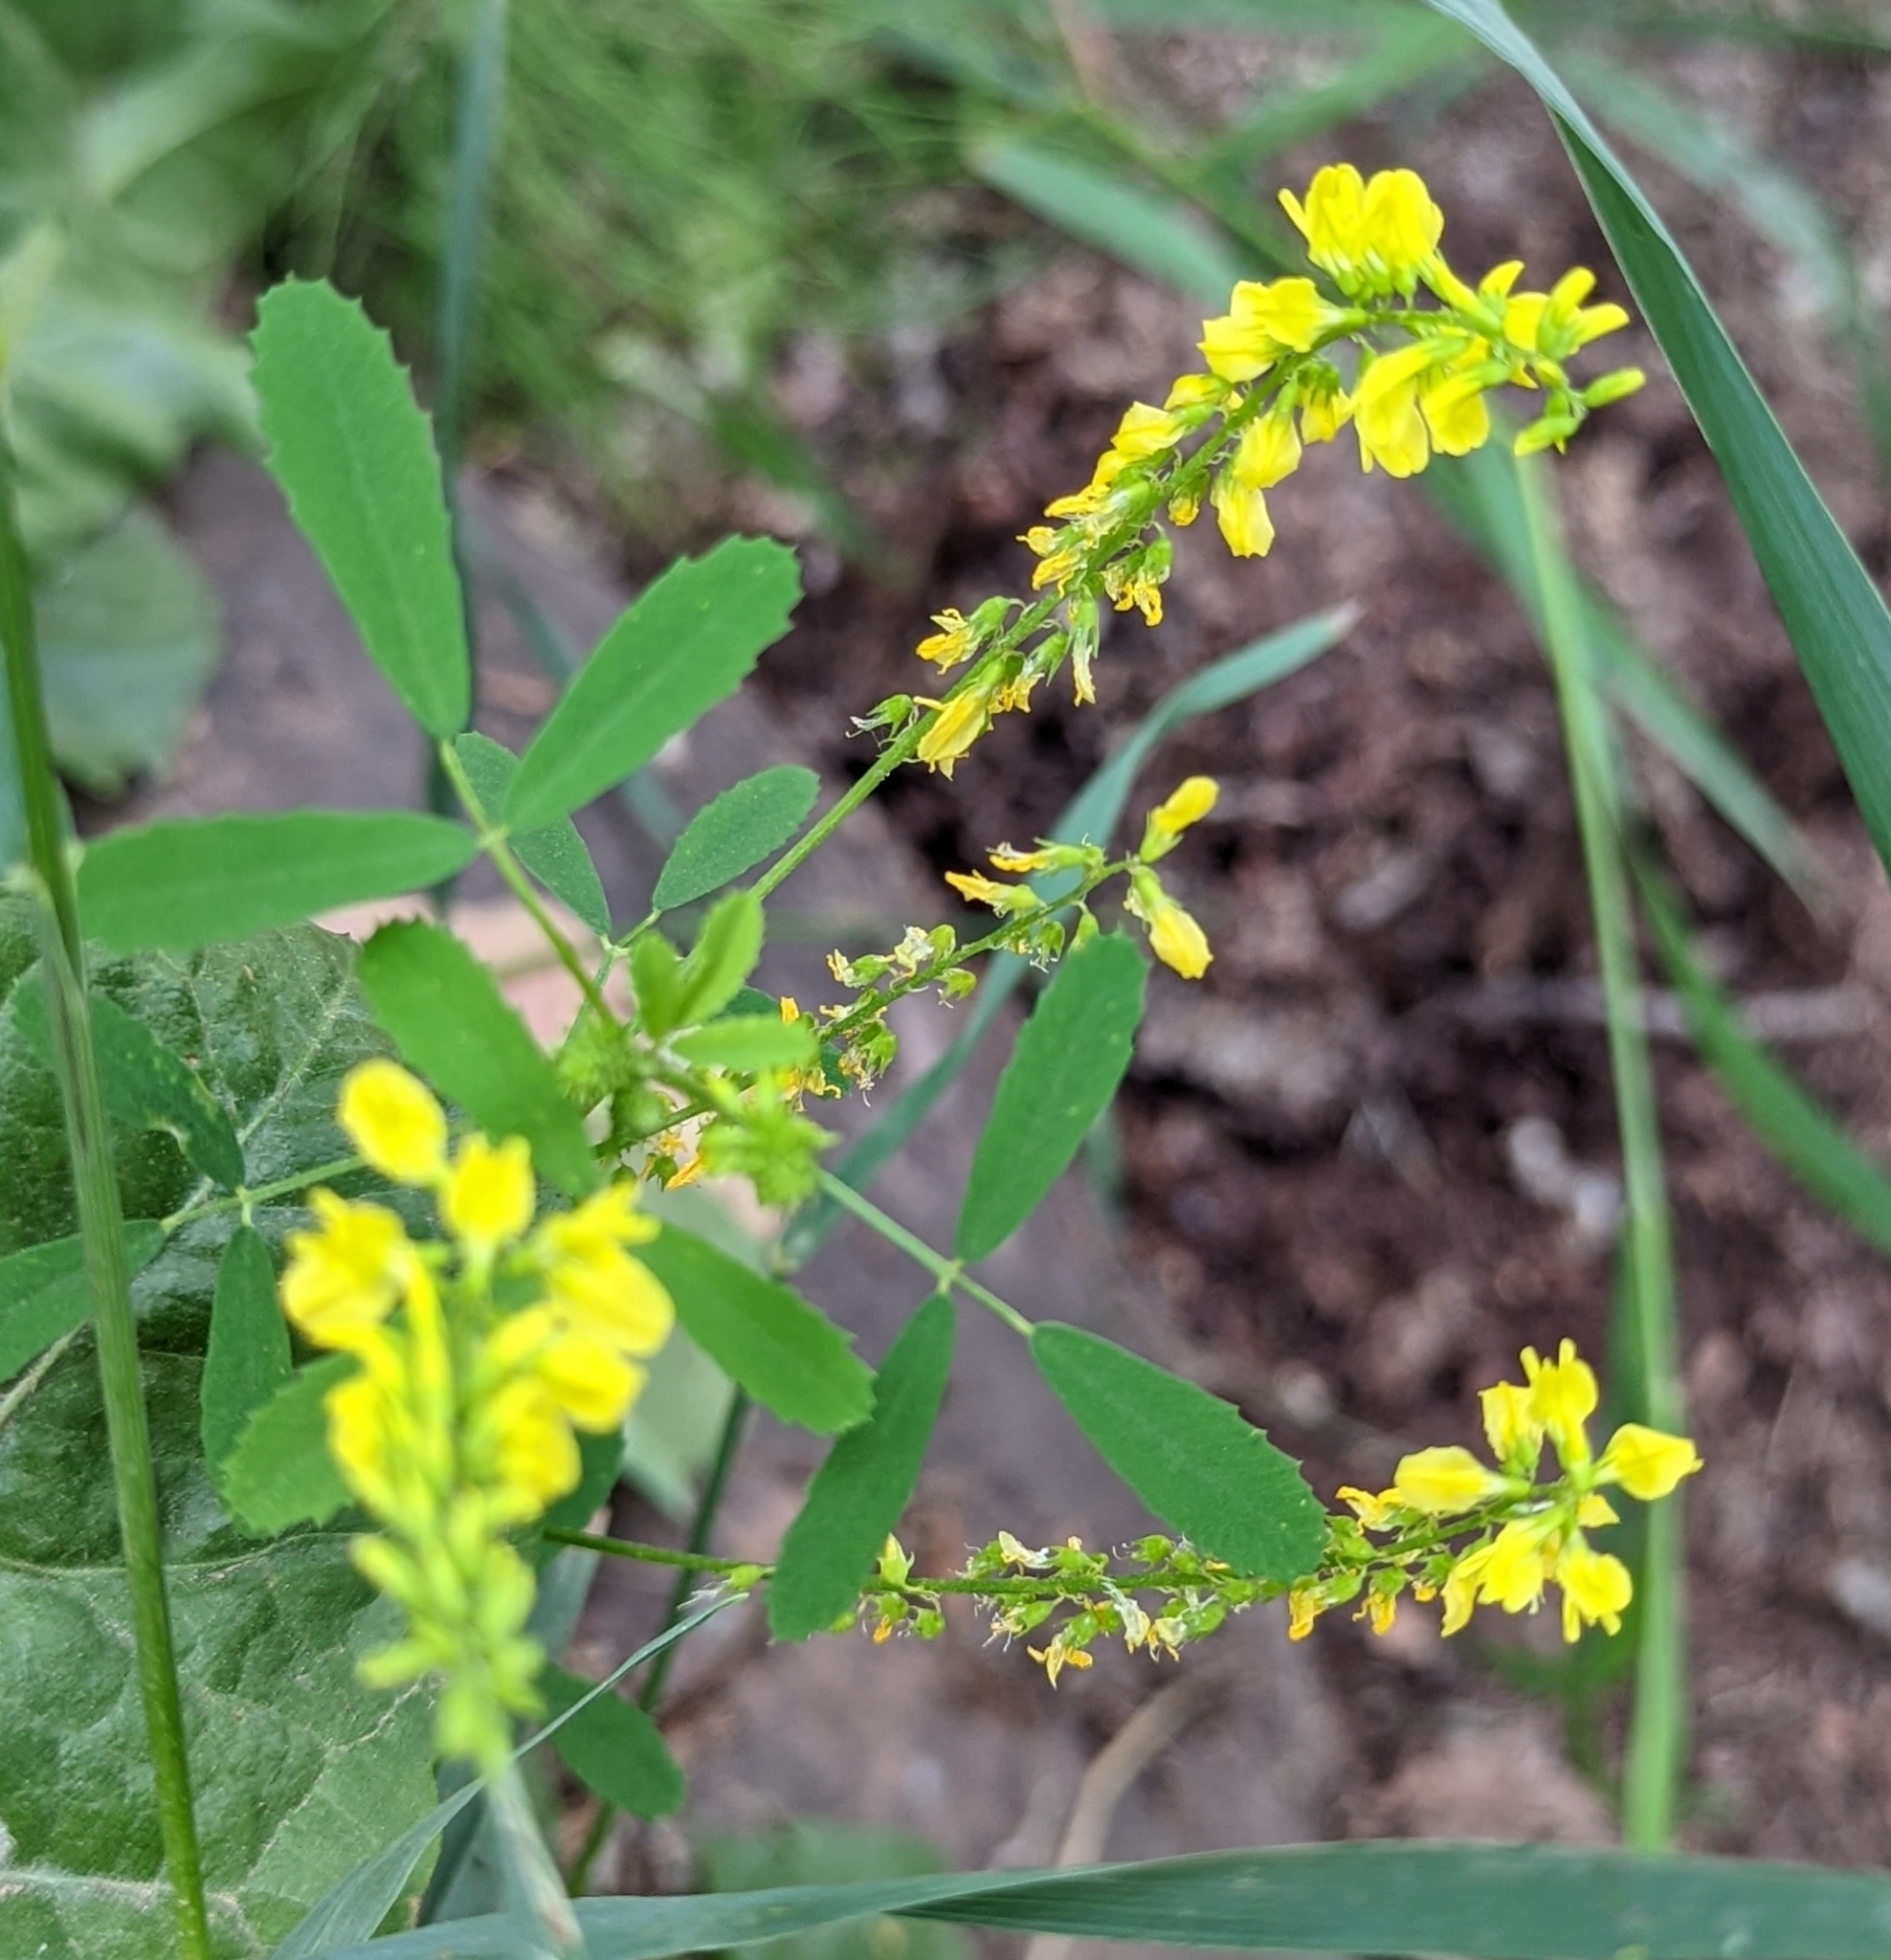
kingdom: Plantae
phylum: Tracheophyta
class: Magnoliopsida
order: Fabales
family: Fabaceae
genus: Melilotus
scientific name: Melilotus officinalis
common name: Sweetclover
